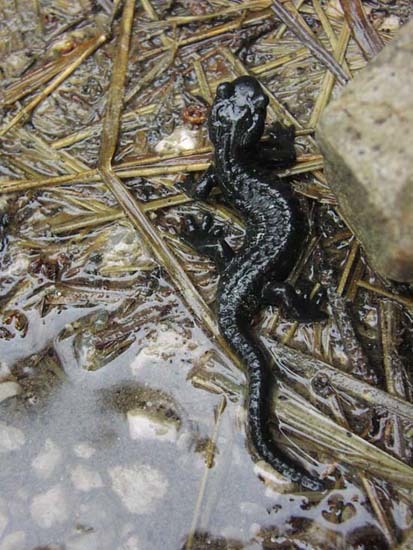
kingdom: Animalia
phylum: Chordata
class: Amphibia
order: Caudata
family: Salamandridae
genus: Salamandra
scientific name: Salamandra atra
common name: Alpine salamander
